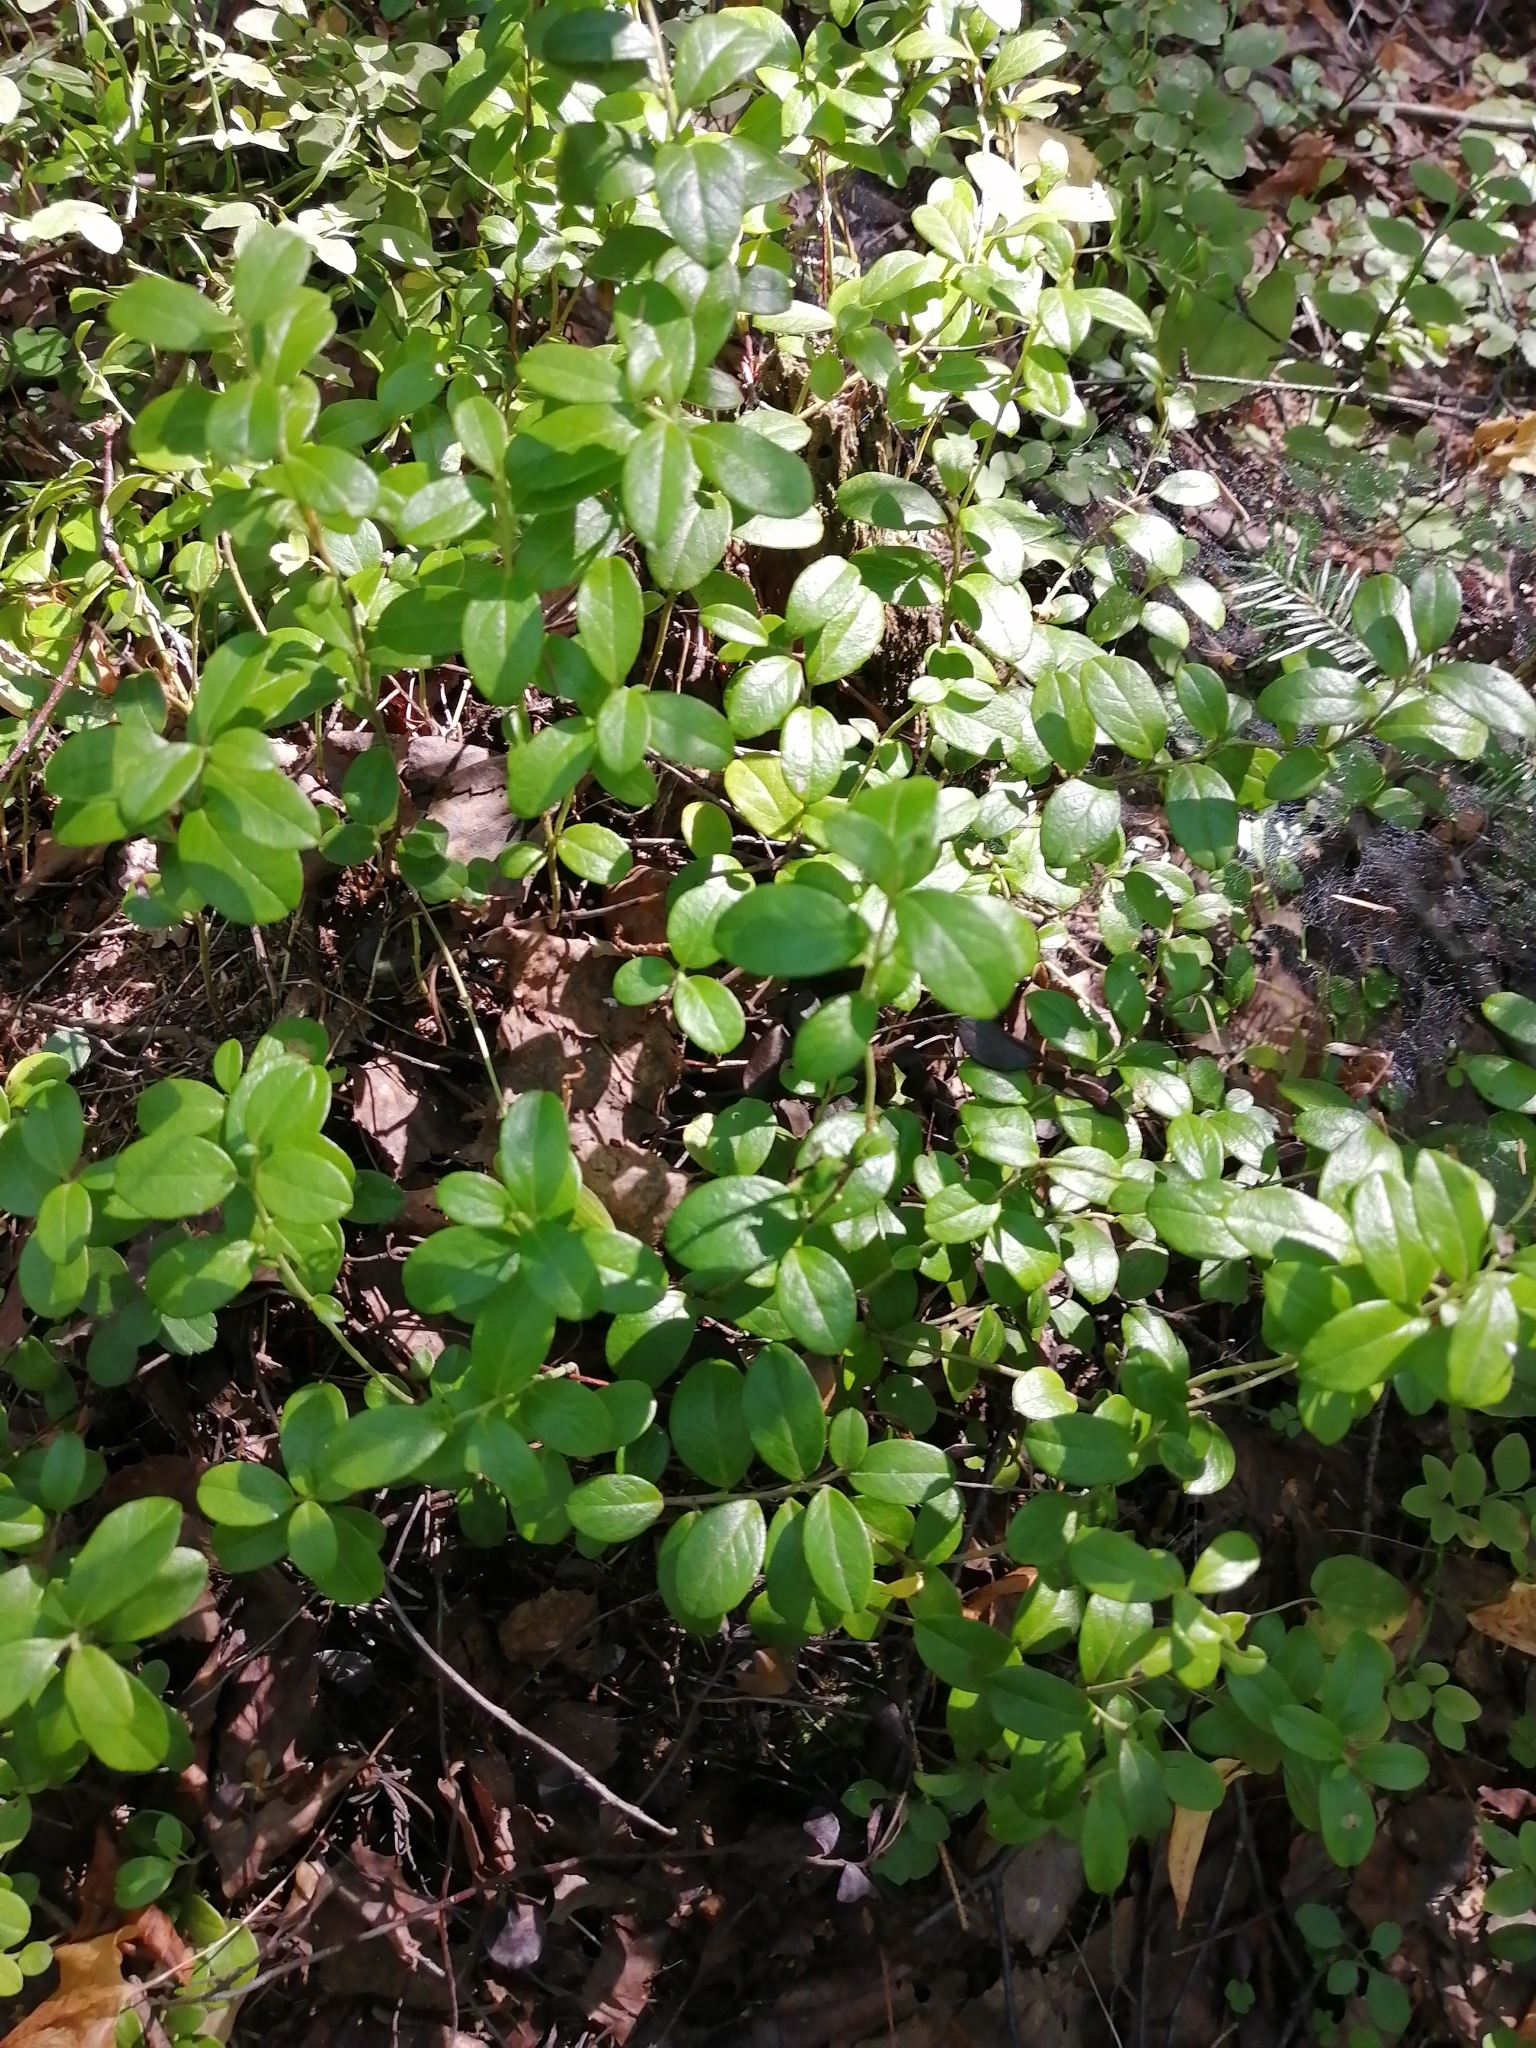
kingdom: Plantae
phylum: Tracheophyta
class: Magnoliopsida
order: Ericales
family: Ericaceae
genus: Vaccinium
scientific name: Vaccinium vitis-idaea
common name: Cowberry
